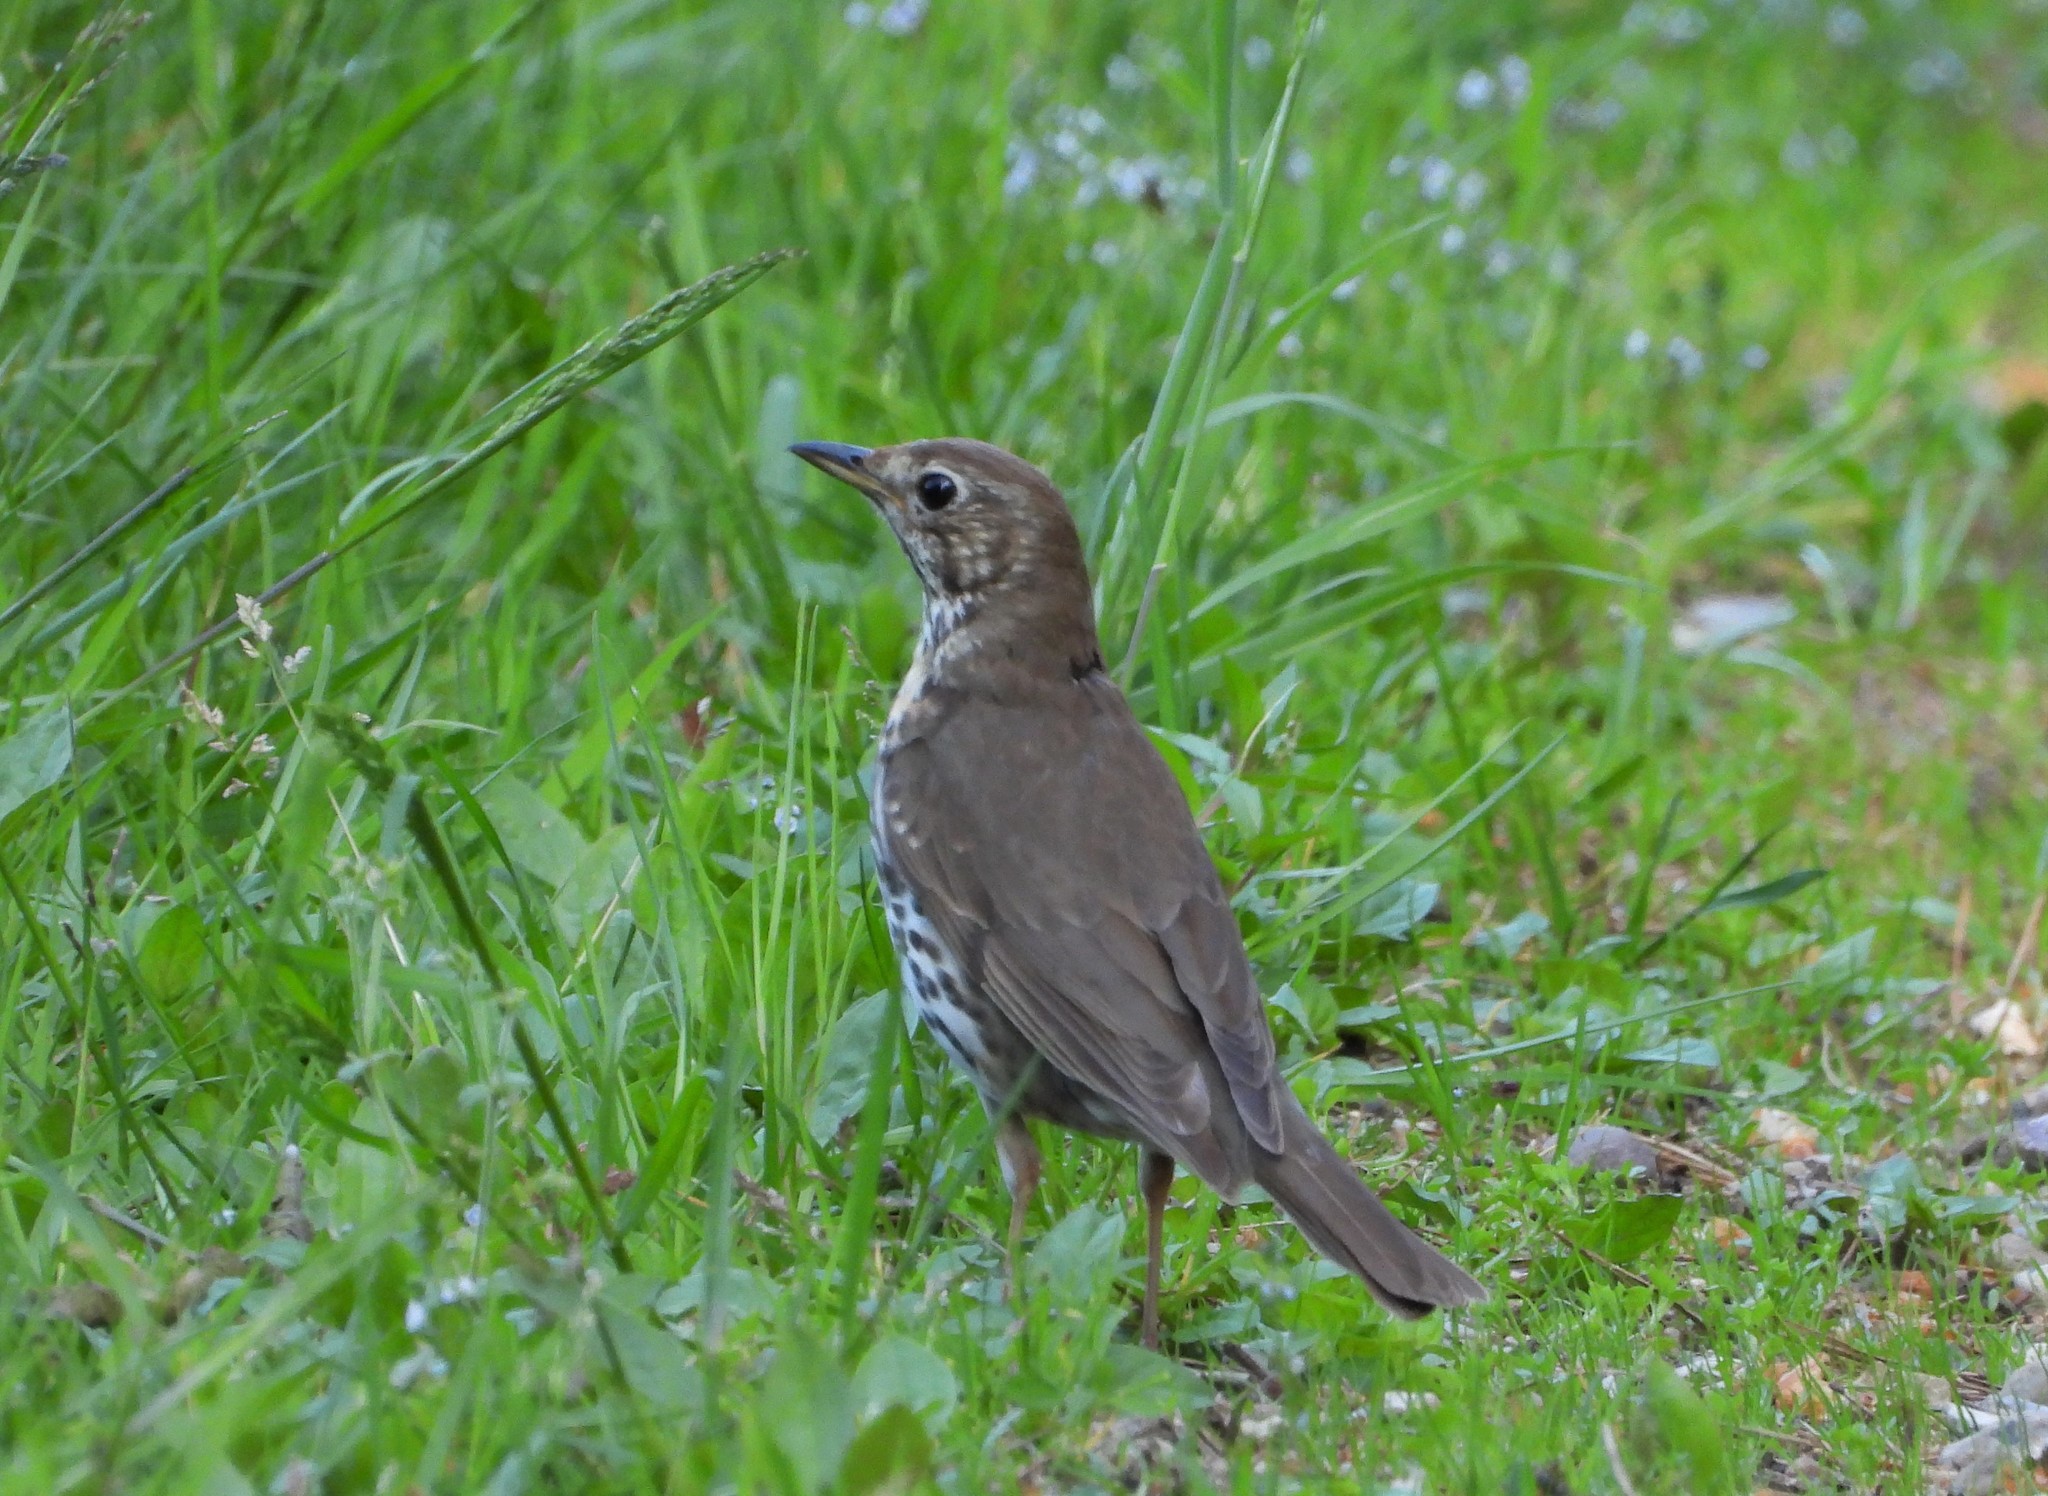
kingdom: Animalia
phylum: Chordata
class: Aves
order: Passeriformes
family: Turdidae
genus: Turdus
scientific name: Turdus philomelos
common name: Song thrush
